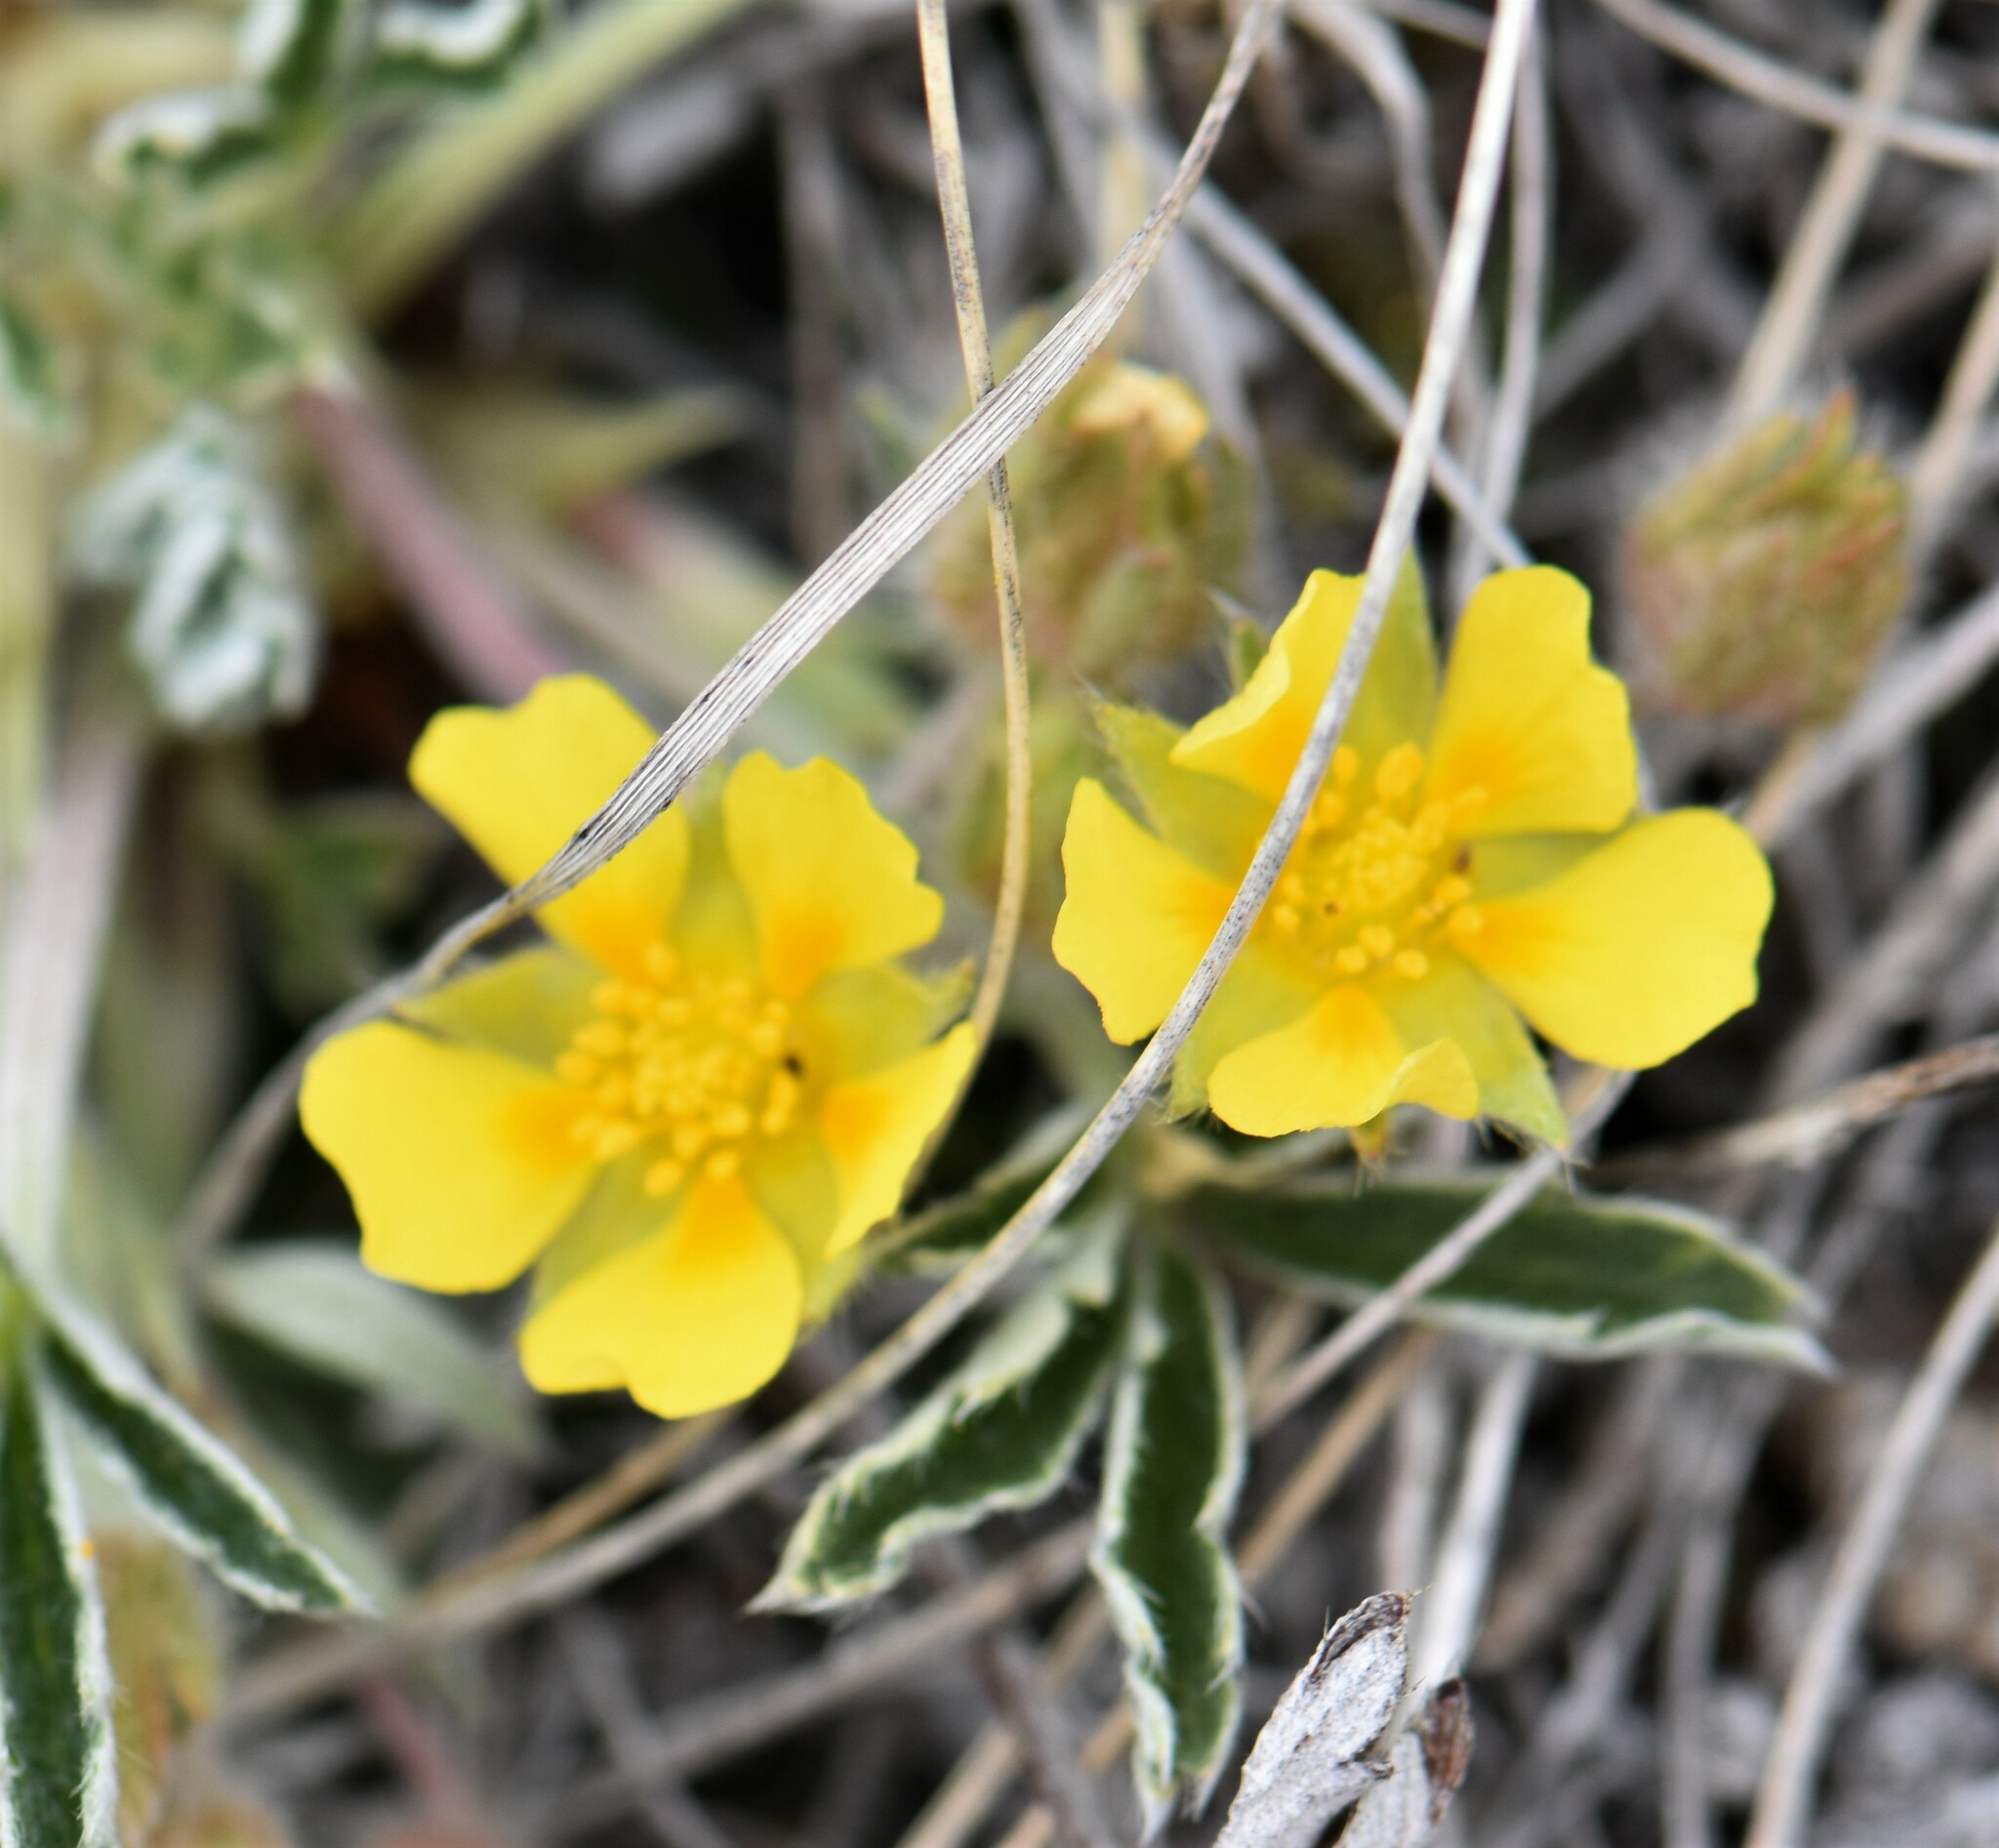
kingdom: Plantae
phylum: Tracheophyta
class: Magnoliopsida
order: Rosales
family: Rosaceae
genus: Potentilla
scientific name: Potentilla concinna
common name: Early cinquefoil
